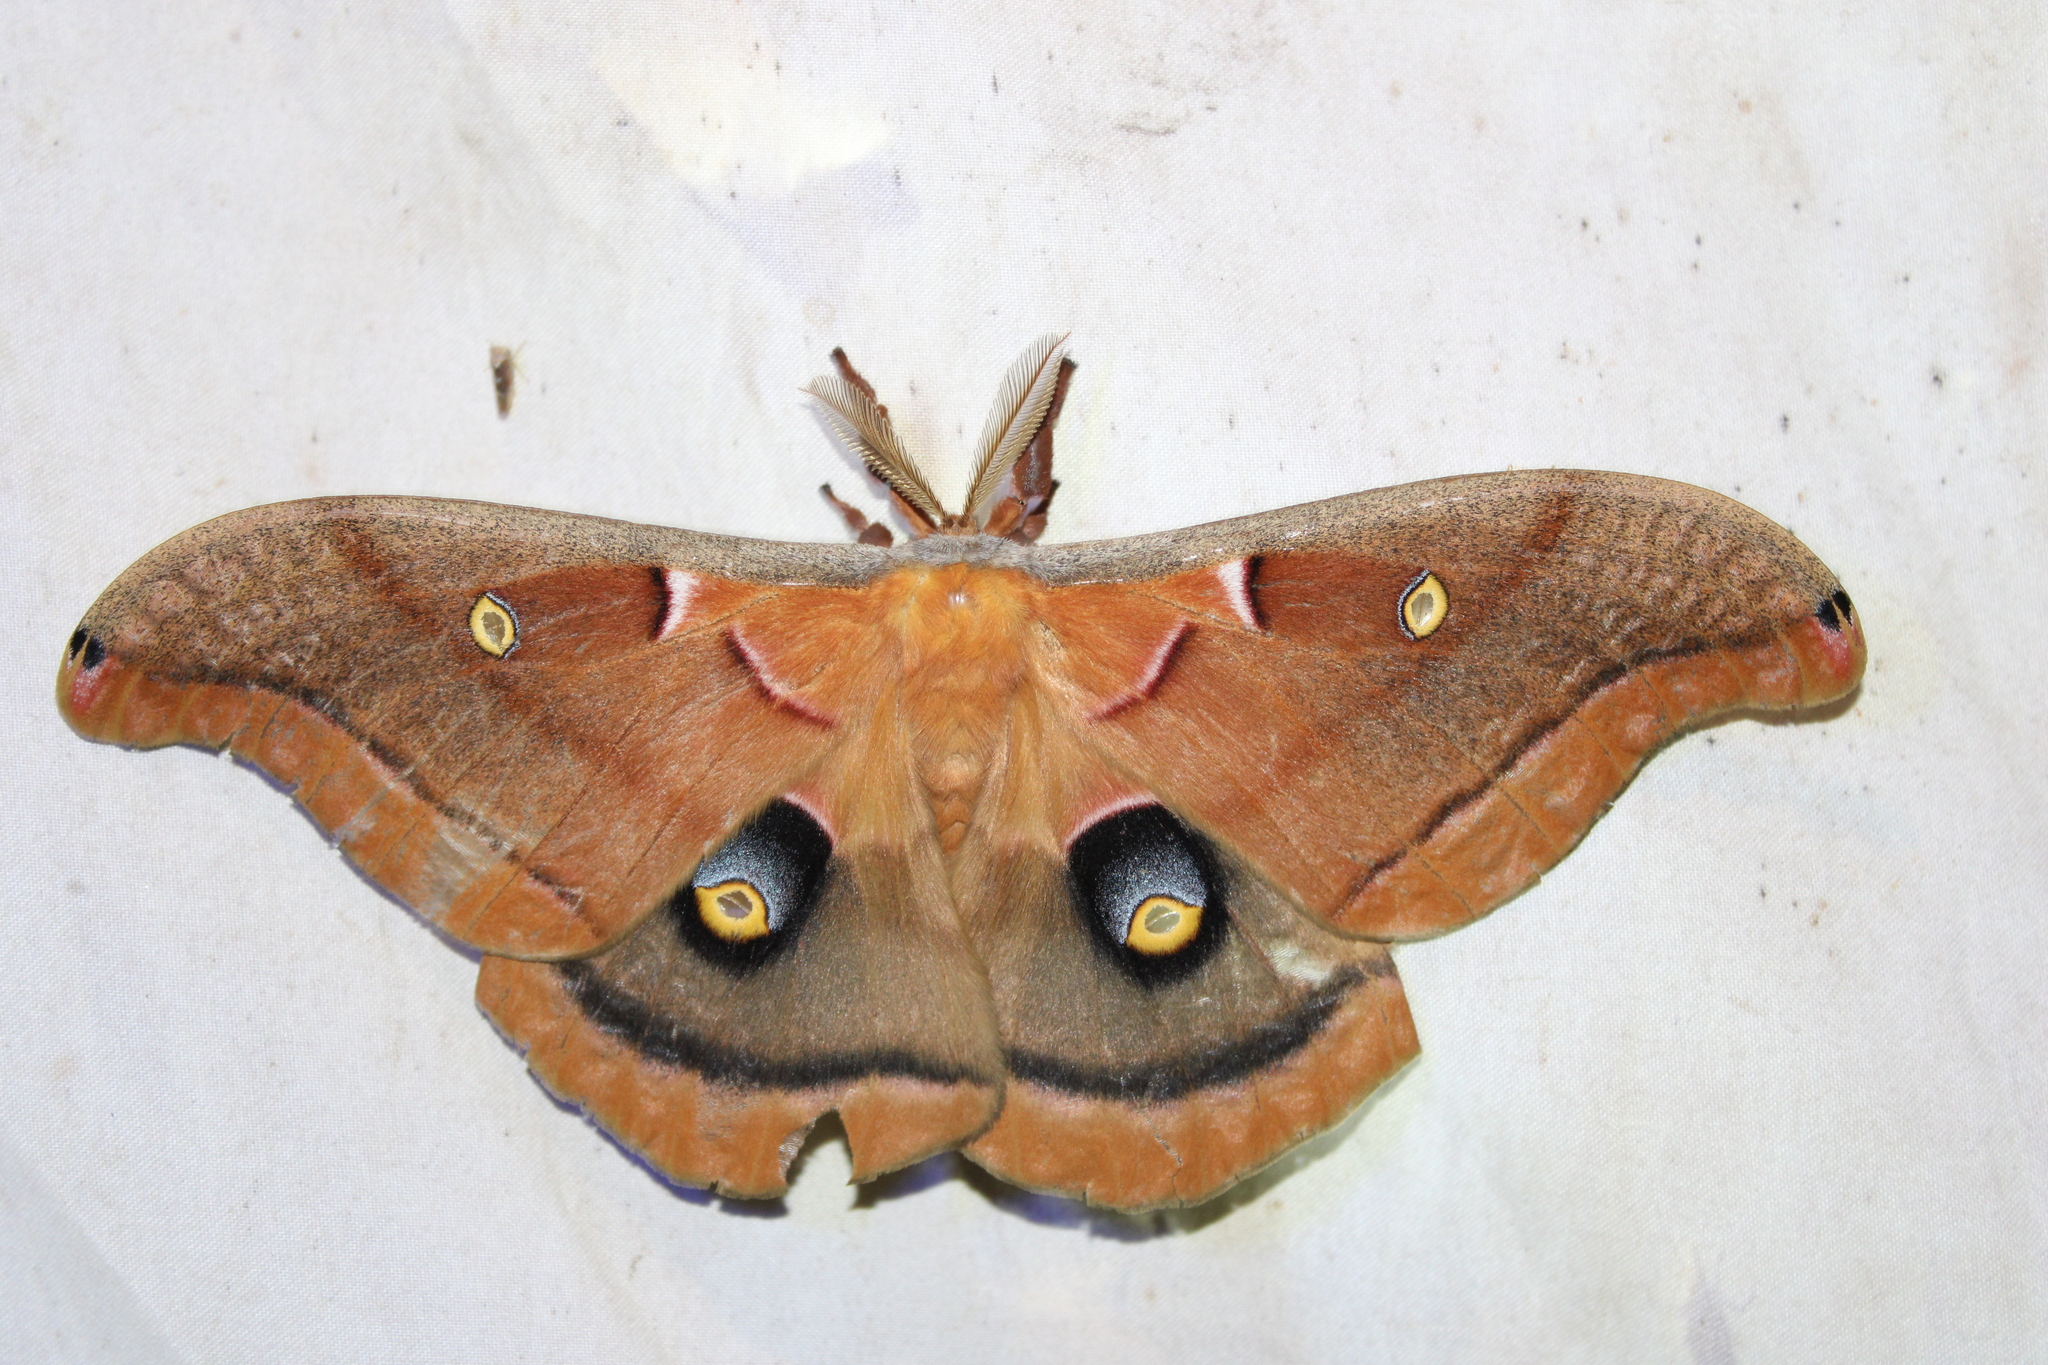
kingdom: Animalia
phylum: Arthropoda
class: Insecta
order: Lepidoptera
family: Saturniidae
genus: Antheraea
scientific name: Antheraea polyphemus
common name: Polyphemus moth
